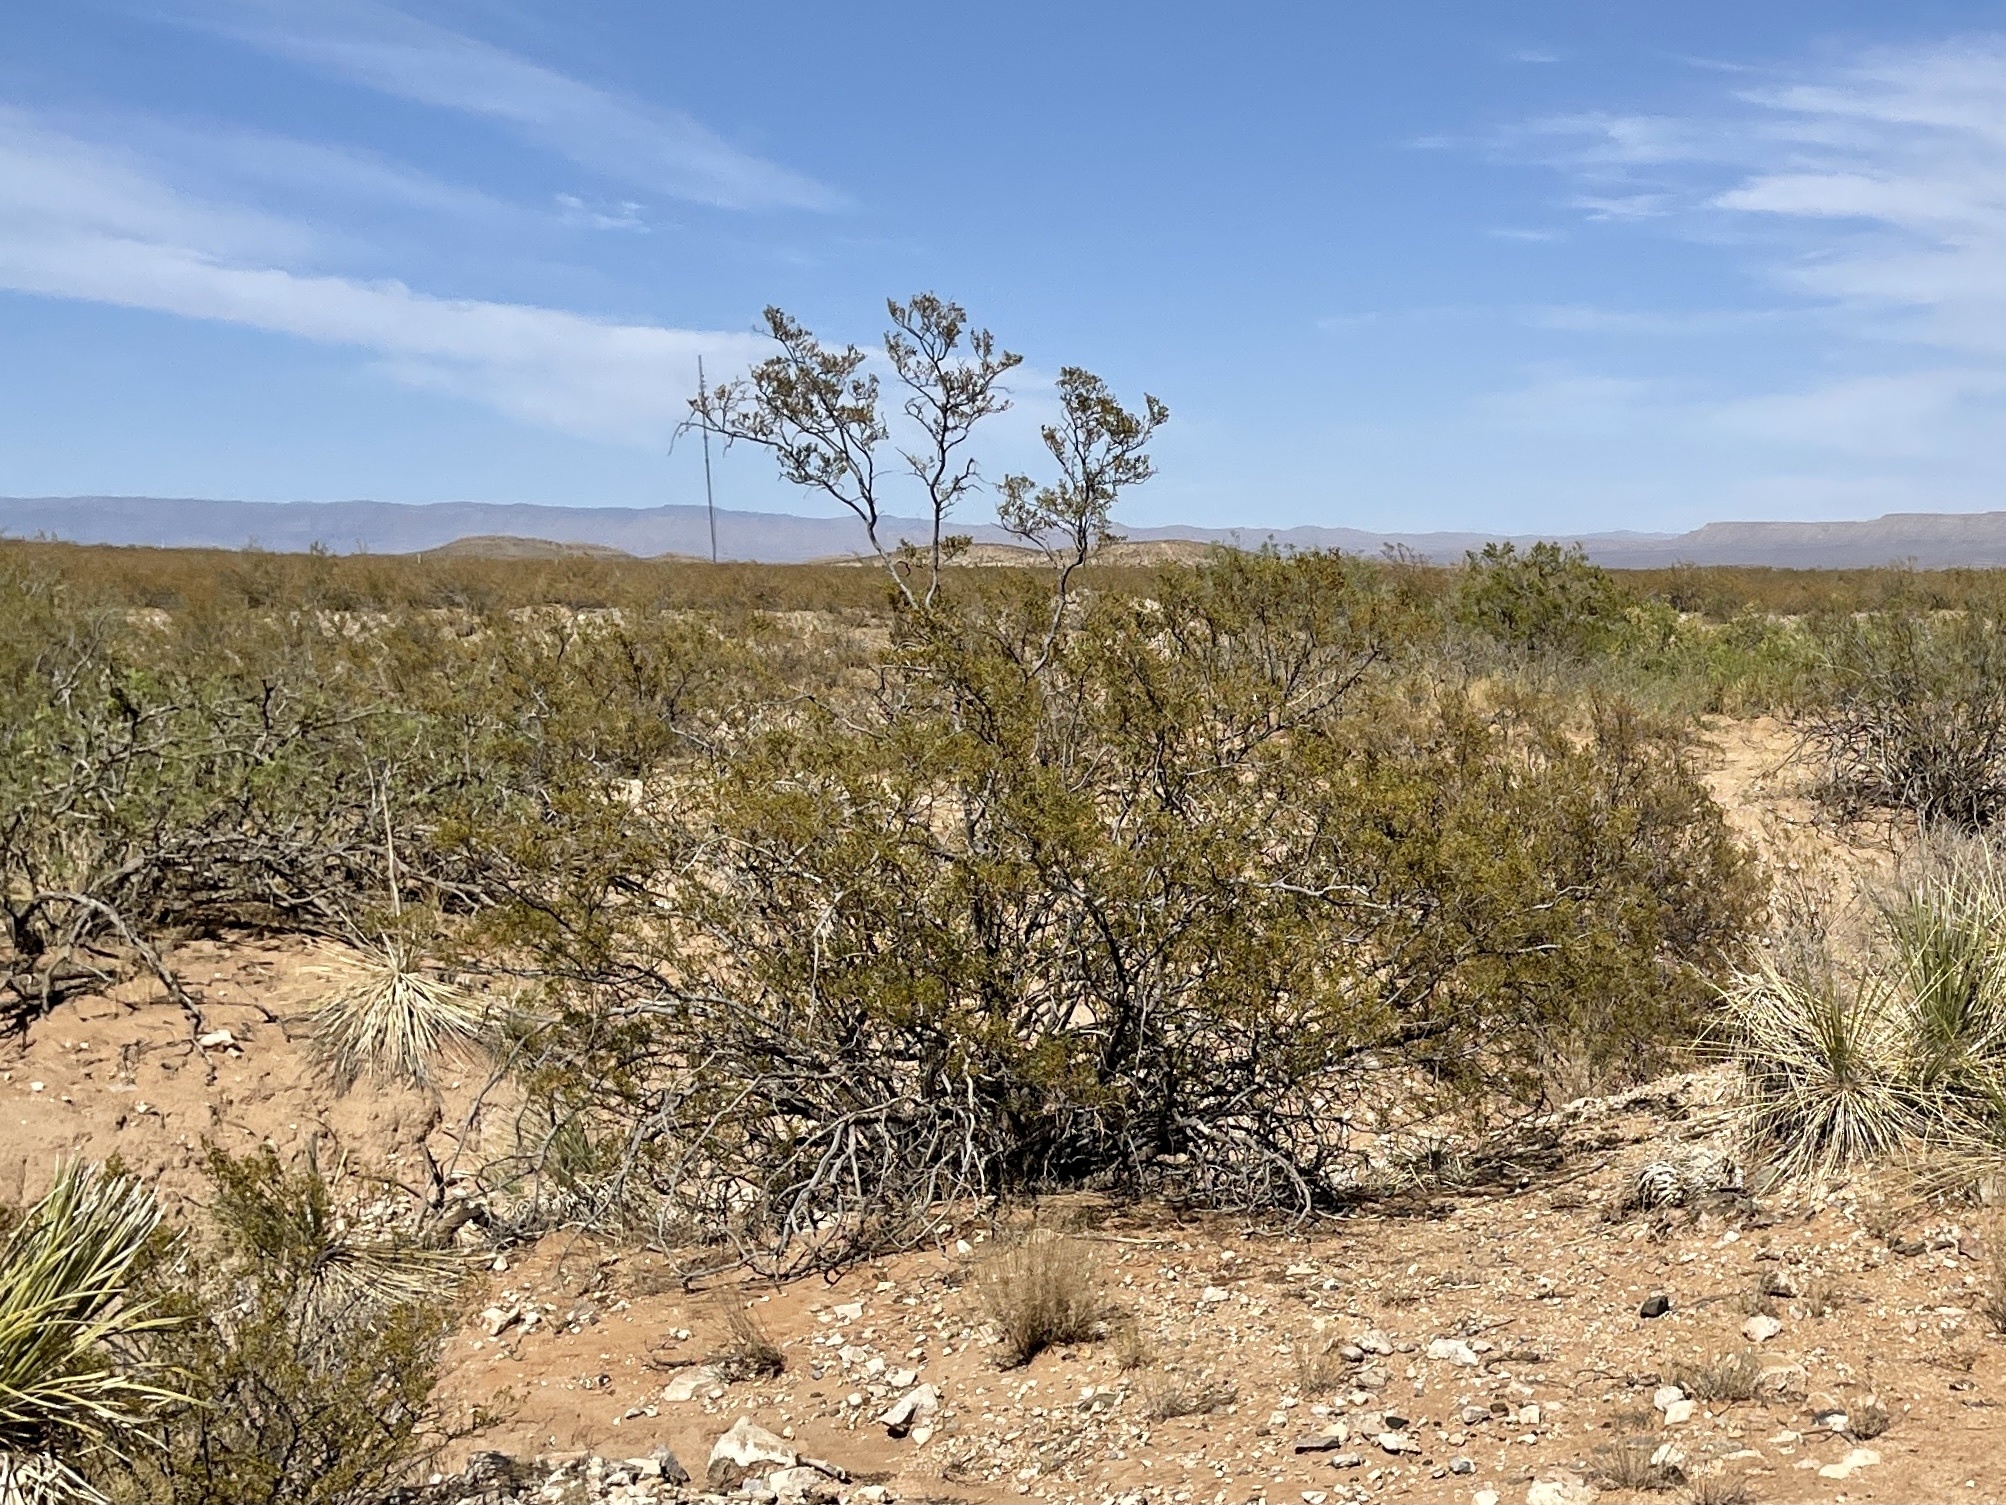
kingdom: Plantae
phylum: Tracheophyta
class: Magnoliopsida
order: Zygophyllales
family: Zygophyllaceae
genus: Larrea
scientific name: Larrea tridentata
